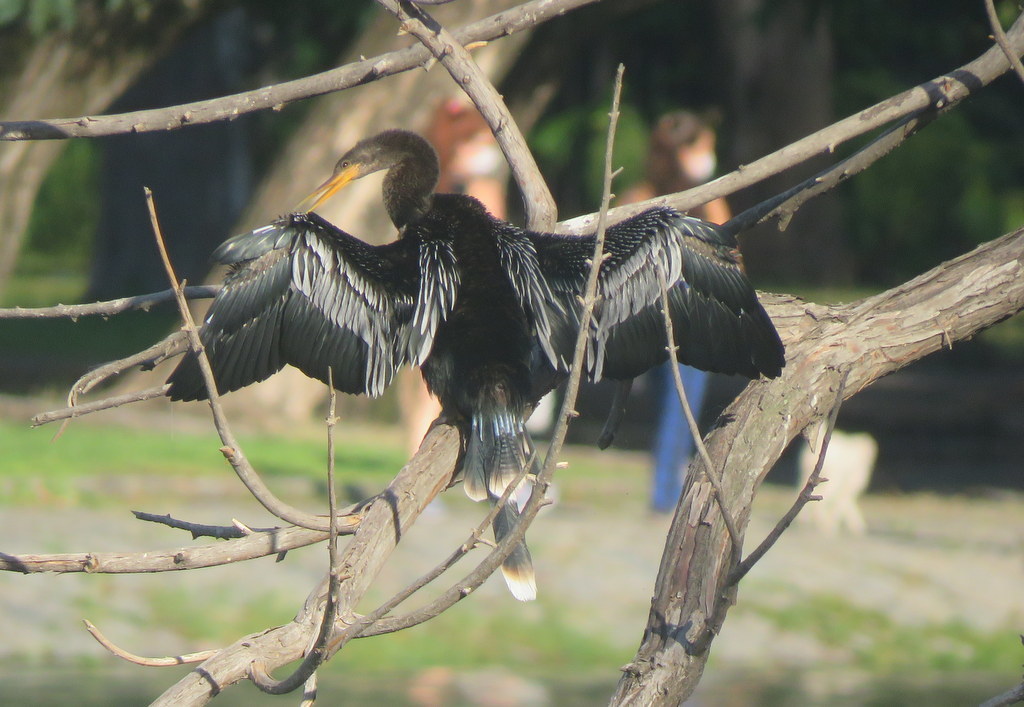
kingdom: Animalia
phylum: Chordata
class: Aves
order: Suliformes
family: Anhingidae
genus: Anhinga
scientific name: Anhinga anhinga
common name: Anhinga
